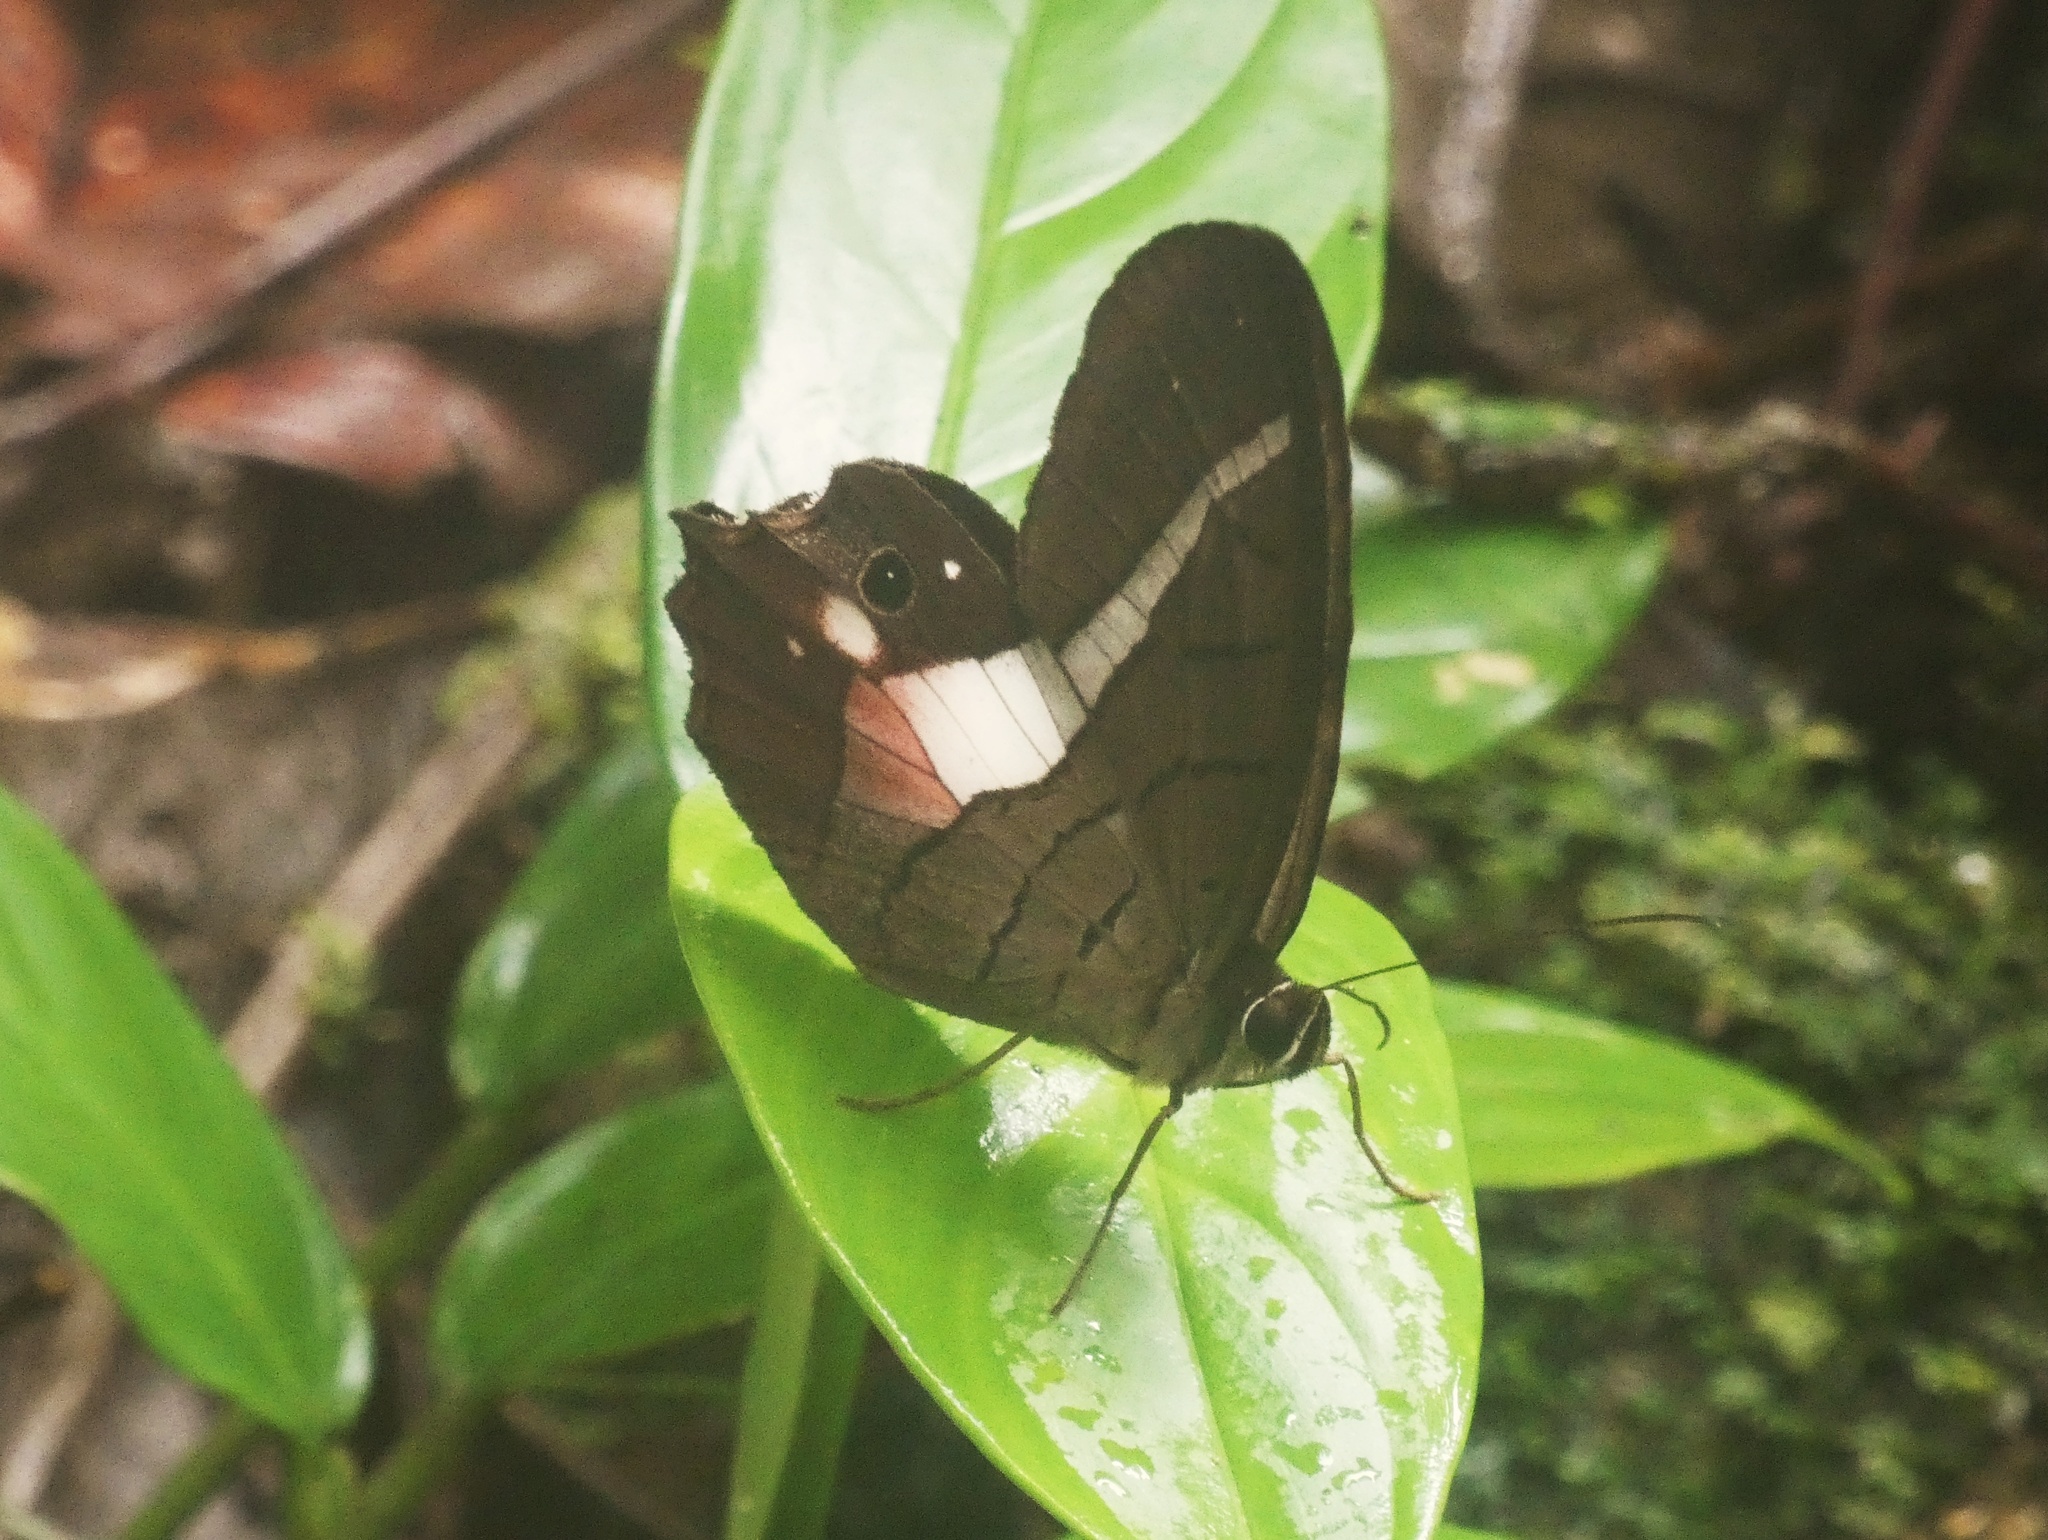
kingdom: Animalia
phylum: Arthropoda
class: Insecta
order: Lepidoptera
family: Nymphalidae
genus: Pierella
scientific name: Pierella helvina
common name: Red-washed satyr
